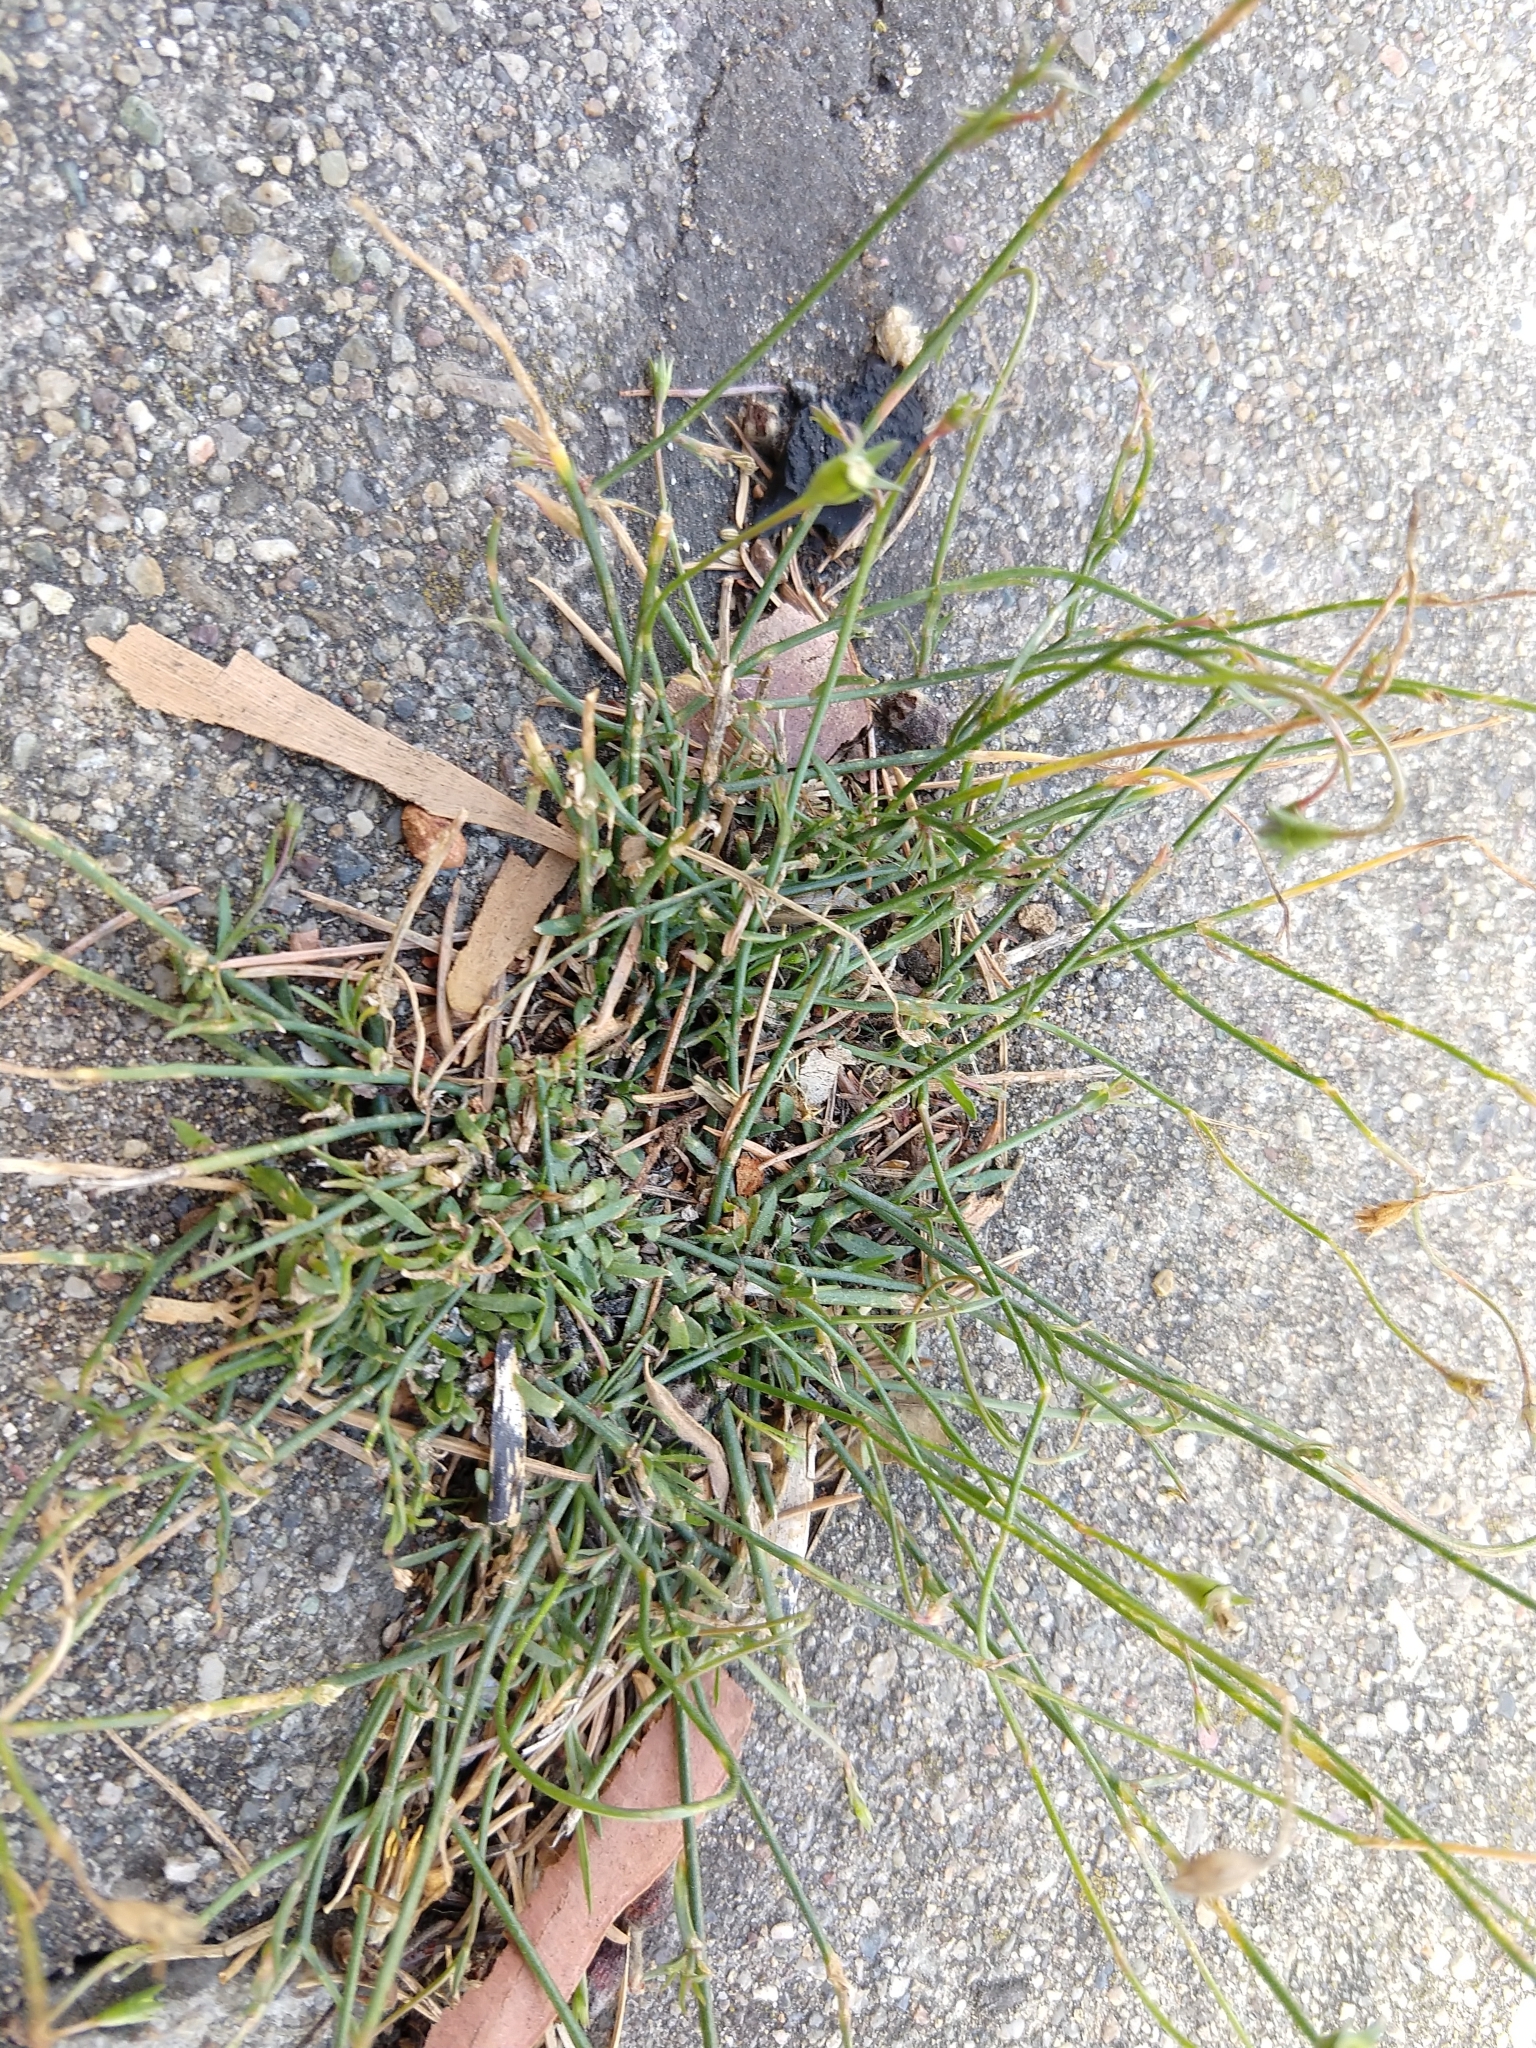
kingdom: Plantae
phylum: Tracheophyta
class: Magnoliopsida
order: Asterales
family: Campanulaceae
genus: Wahlenbergia
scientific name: Wahlenbergia marginata
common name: Southern rockbell
